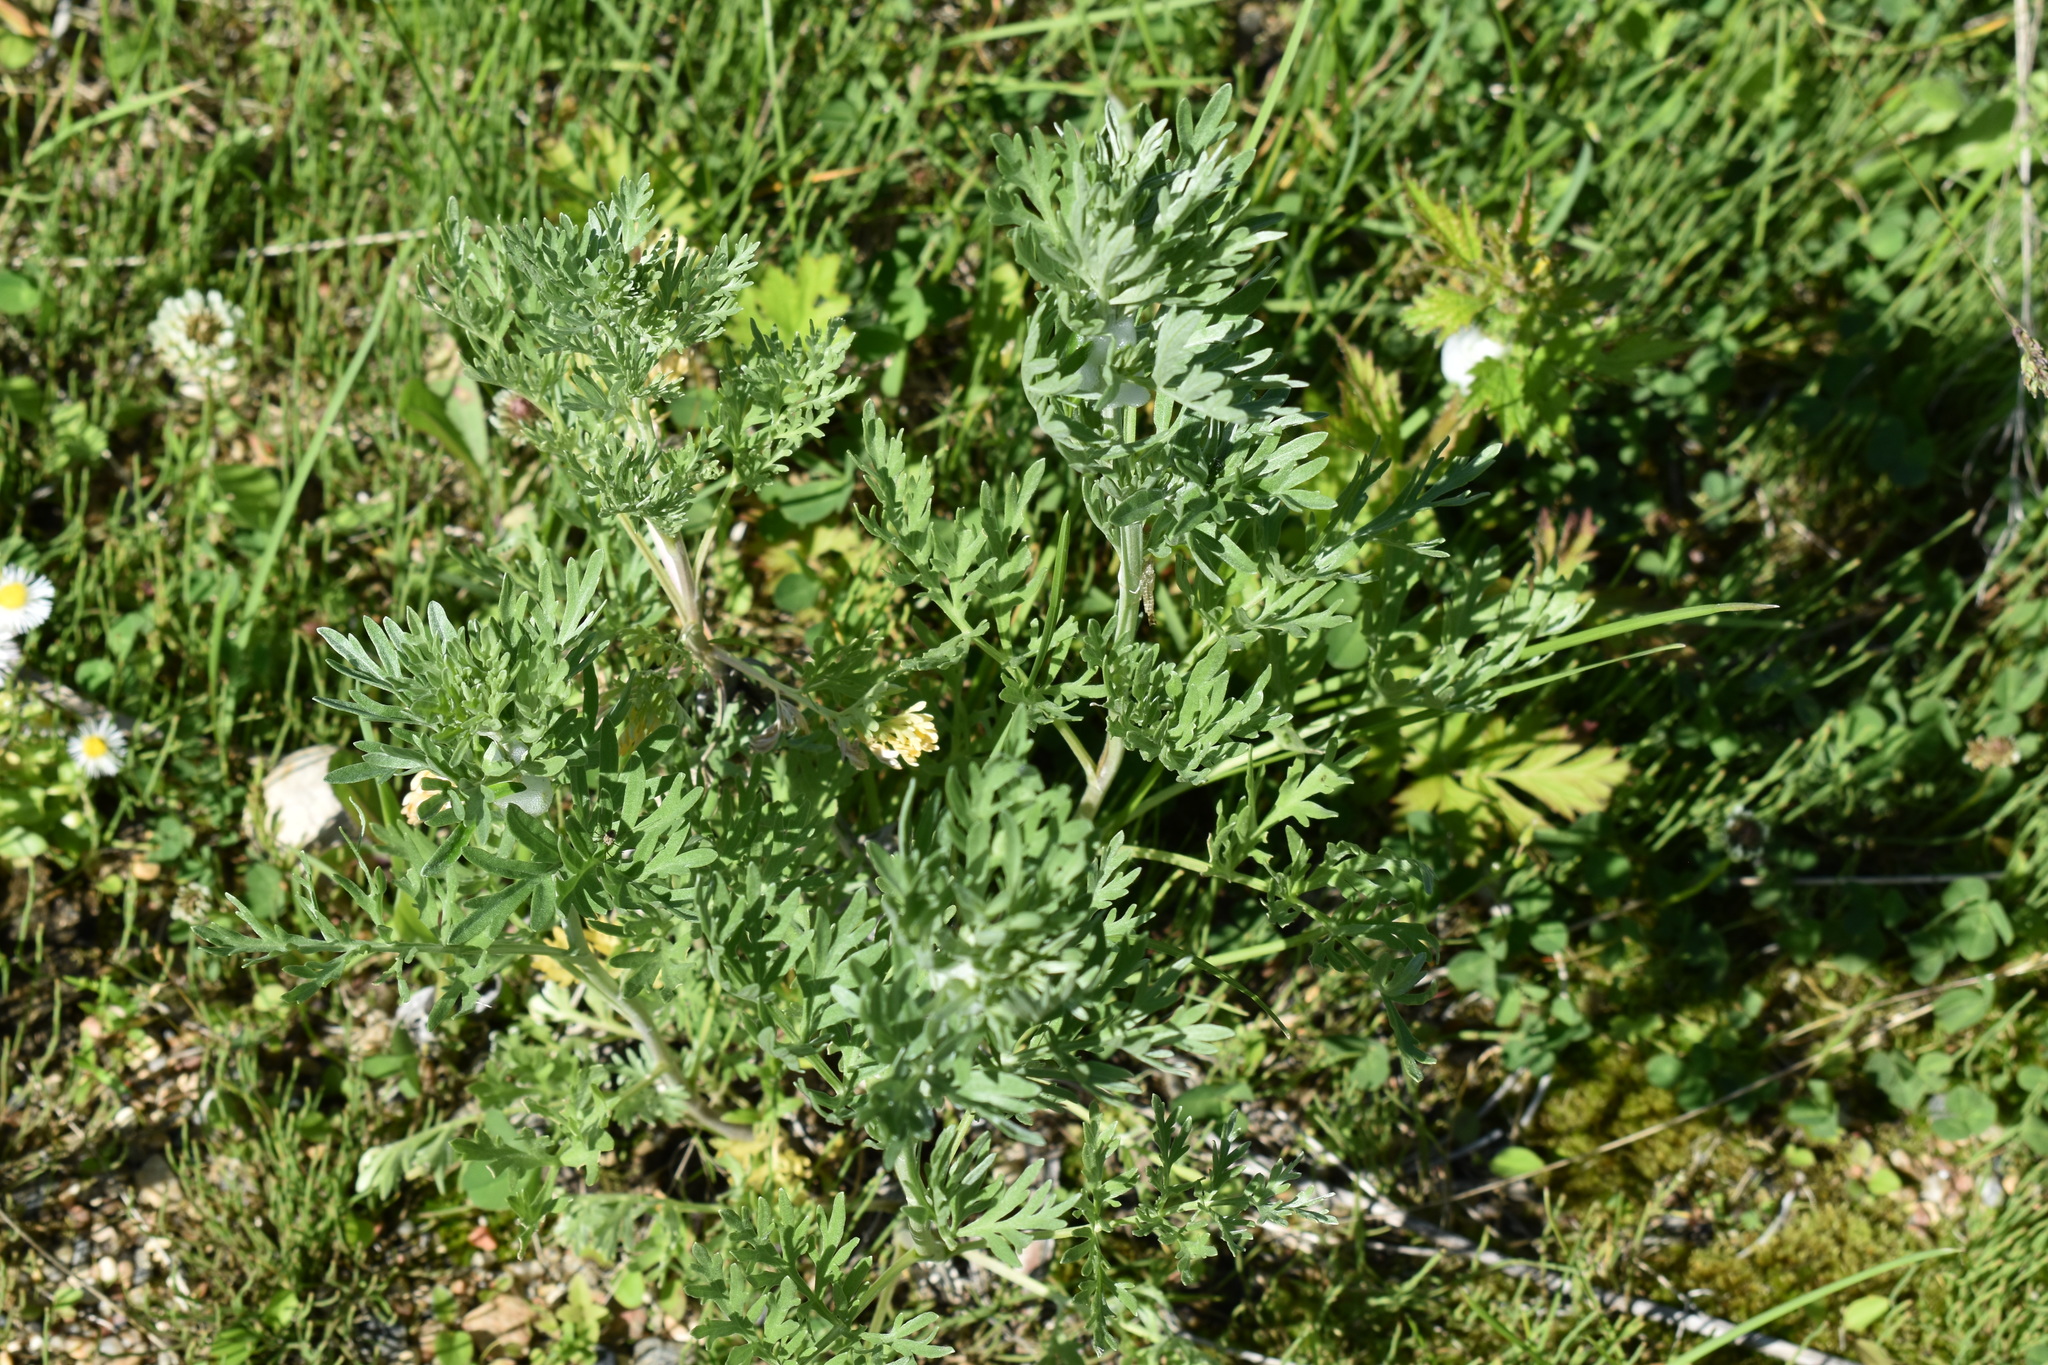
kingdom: Plantae
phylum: Tracheophyta
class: Magnoliopsida
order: Asterales
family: Asteraceae
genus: Artemisia
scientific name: Artemisia absinthium
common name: Wormwood
